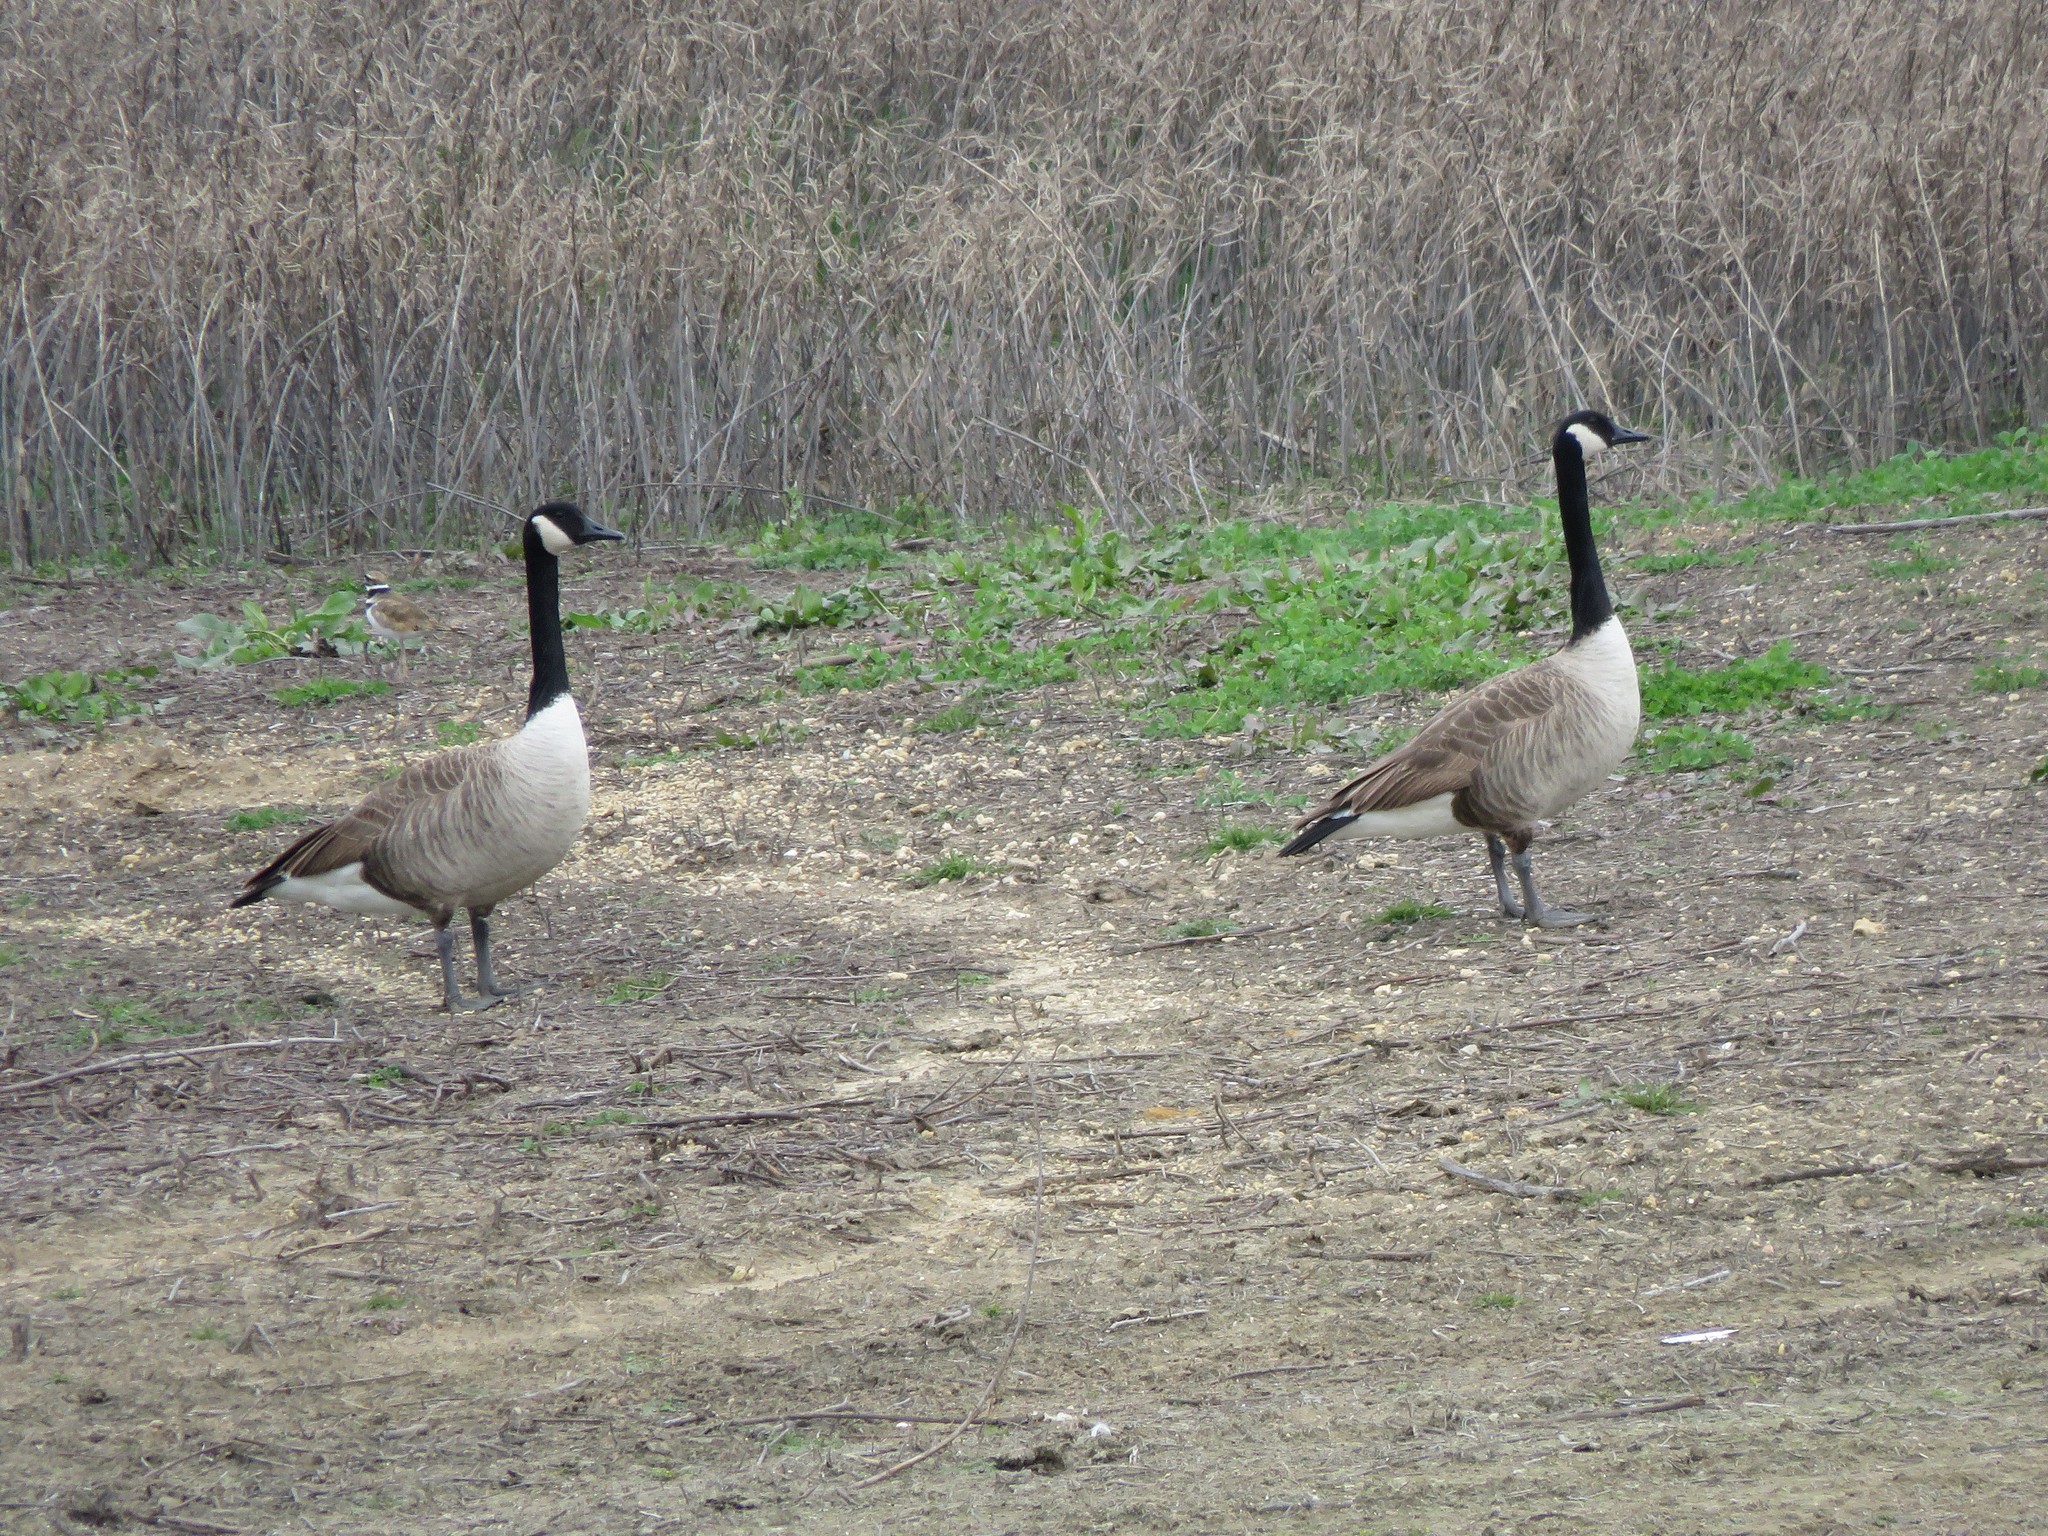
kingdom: Animalia
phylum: Chordata
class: Aves
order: Anseriformes
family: Anatidae
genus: Branta
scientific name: Branta canadensis
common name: Canada goose
